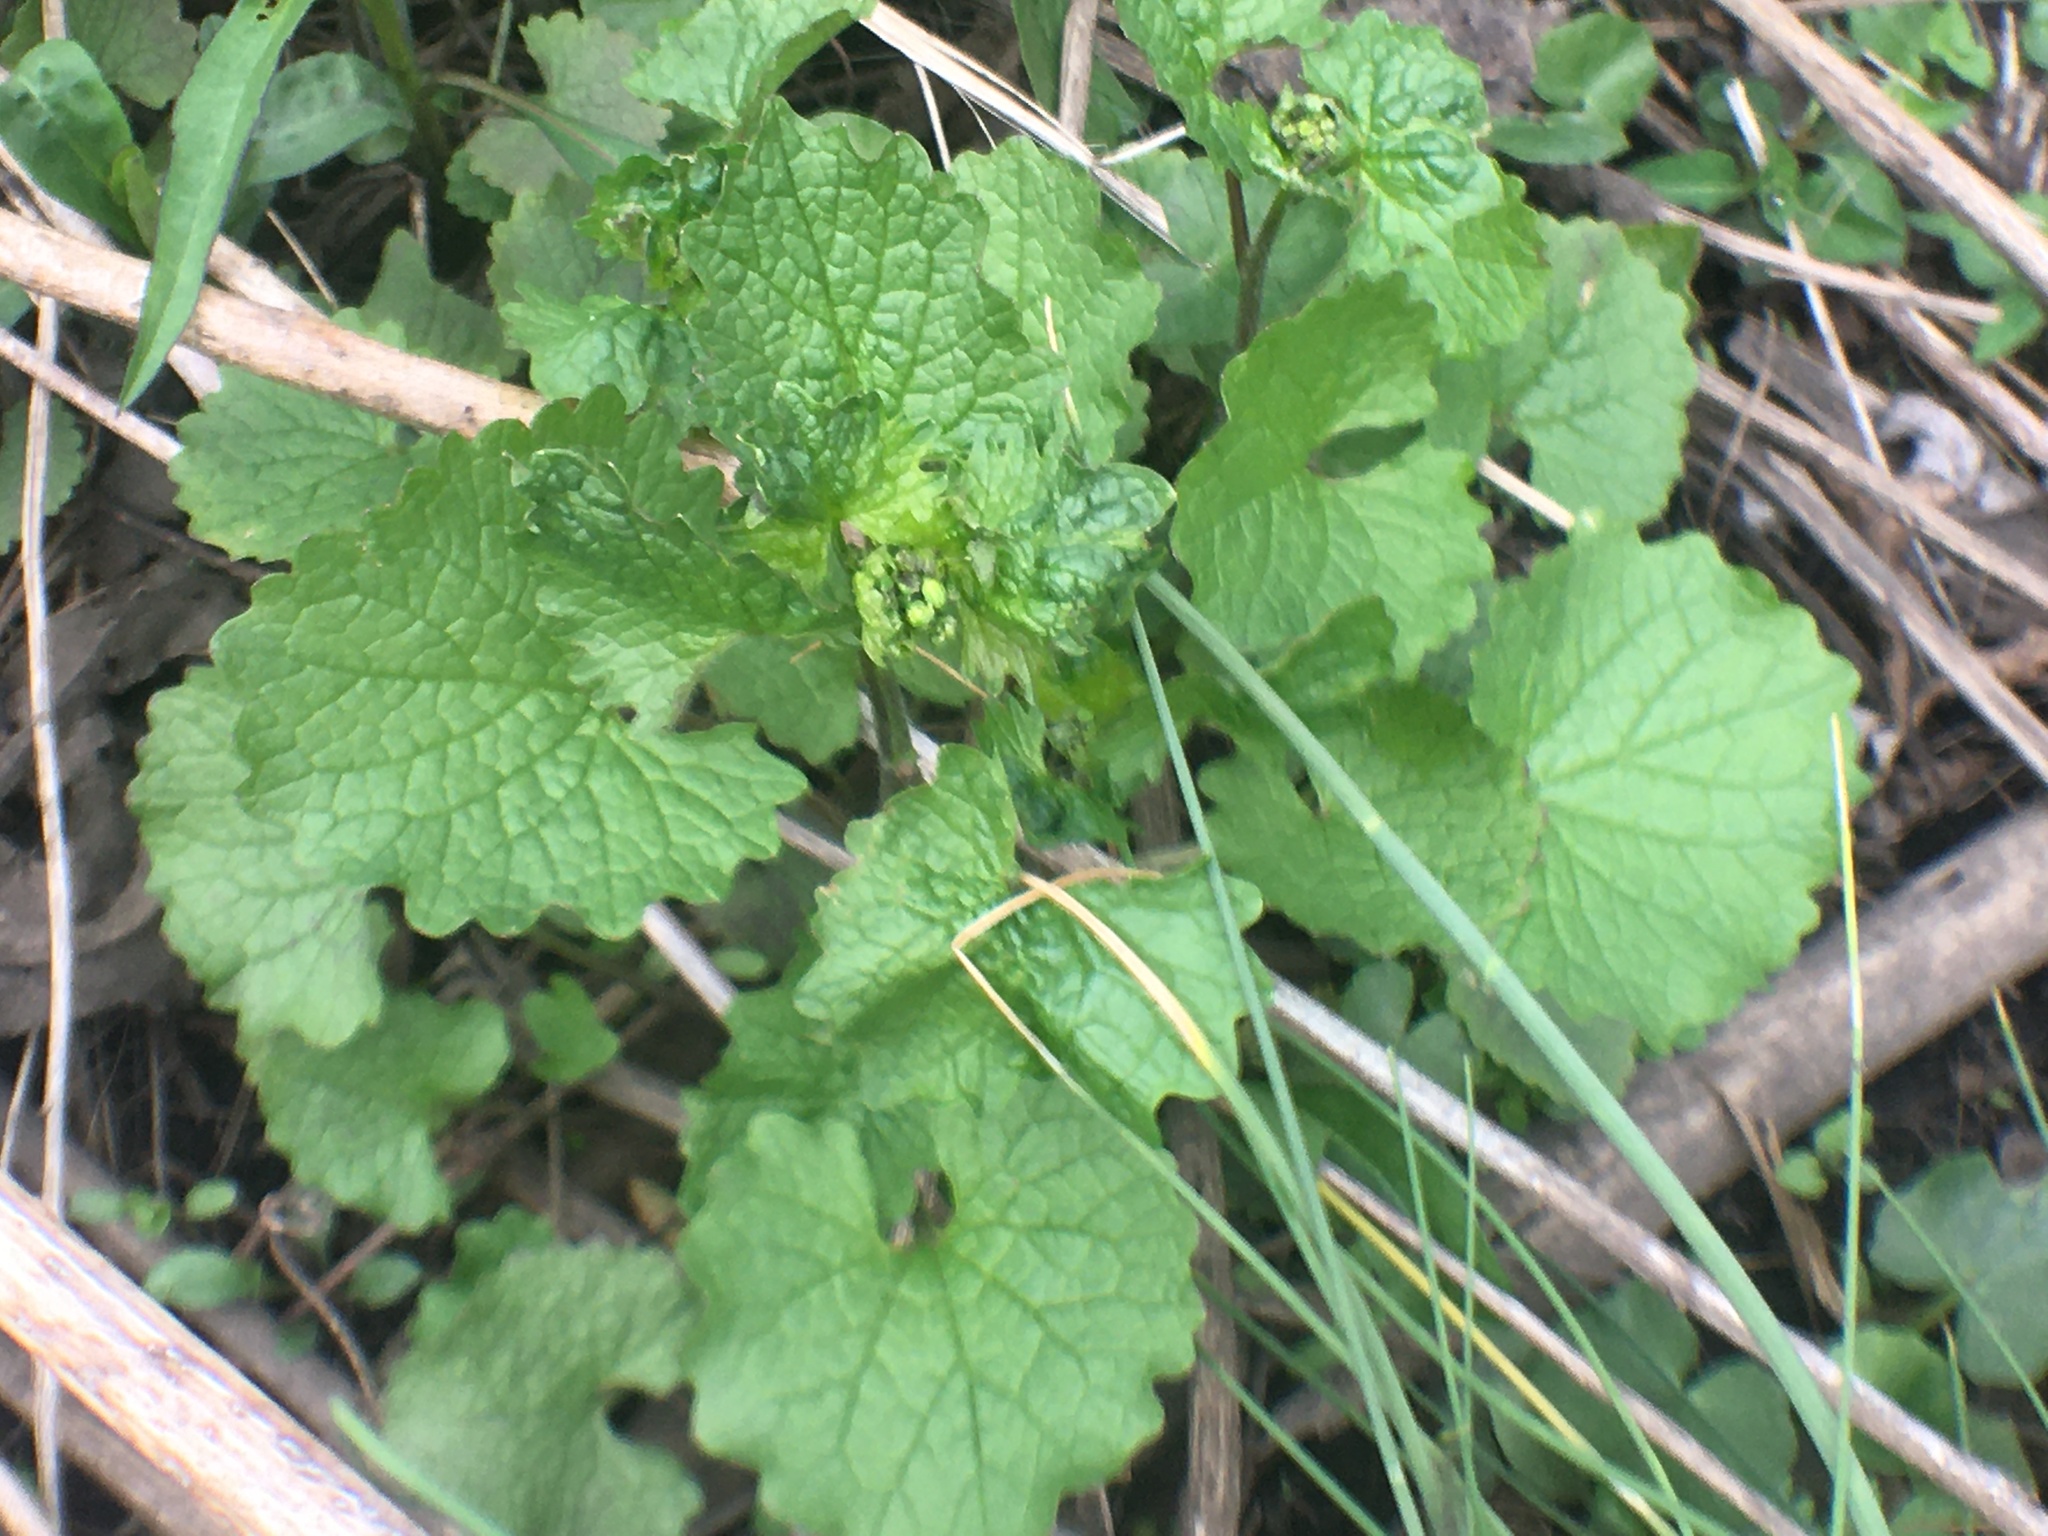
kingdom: Plantae
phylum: Tracheophyta
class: Magnoliopsida
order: Brassicales
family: Brassicaceae
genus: Alliaria
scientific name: Alliaria petiolata
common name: Garlic mustard
